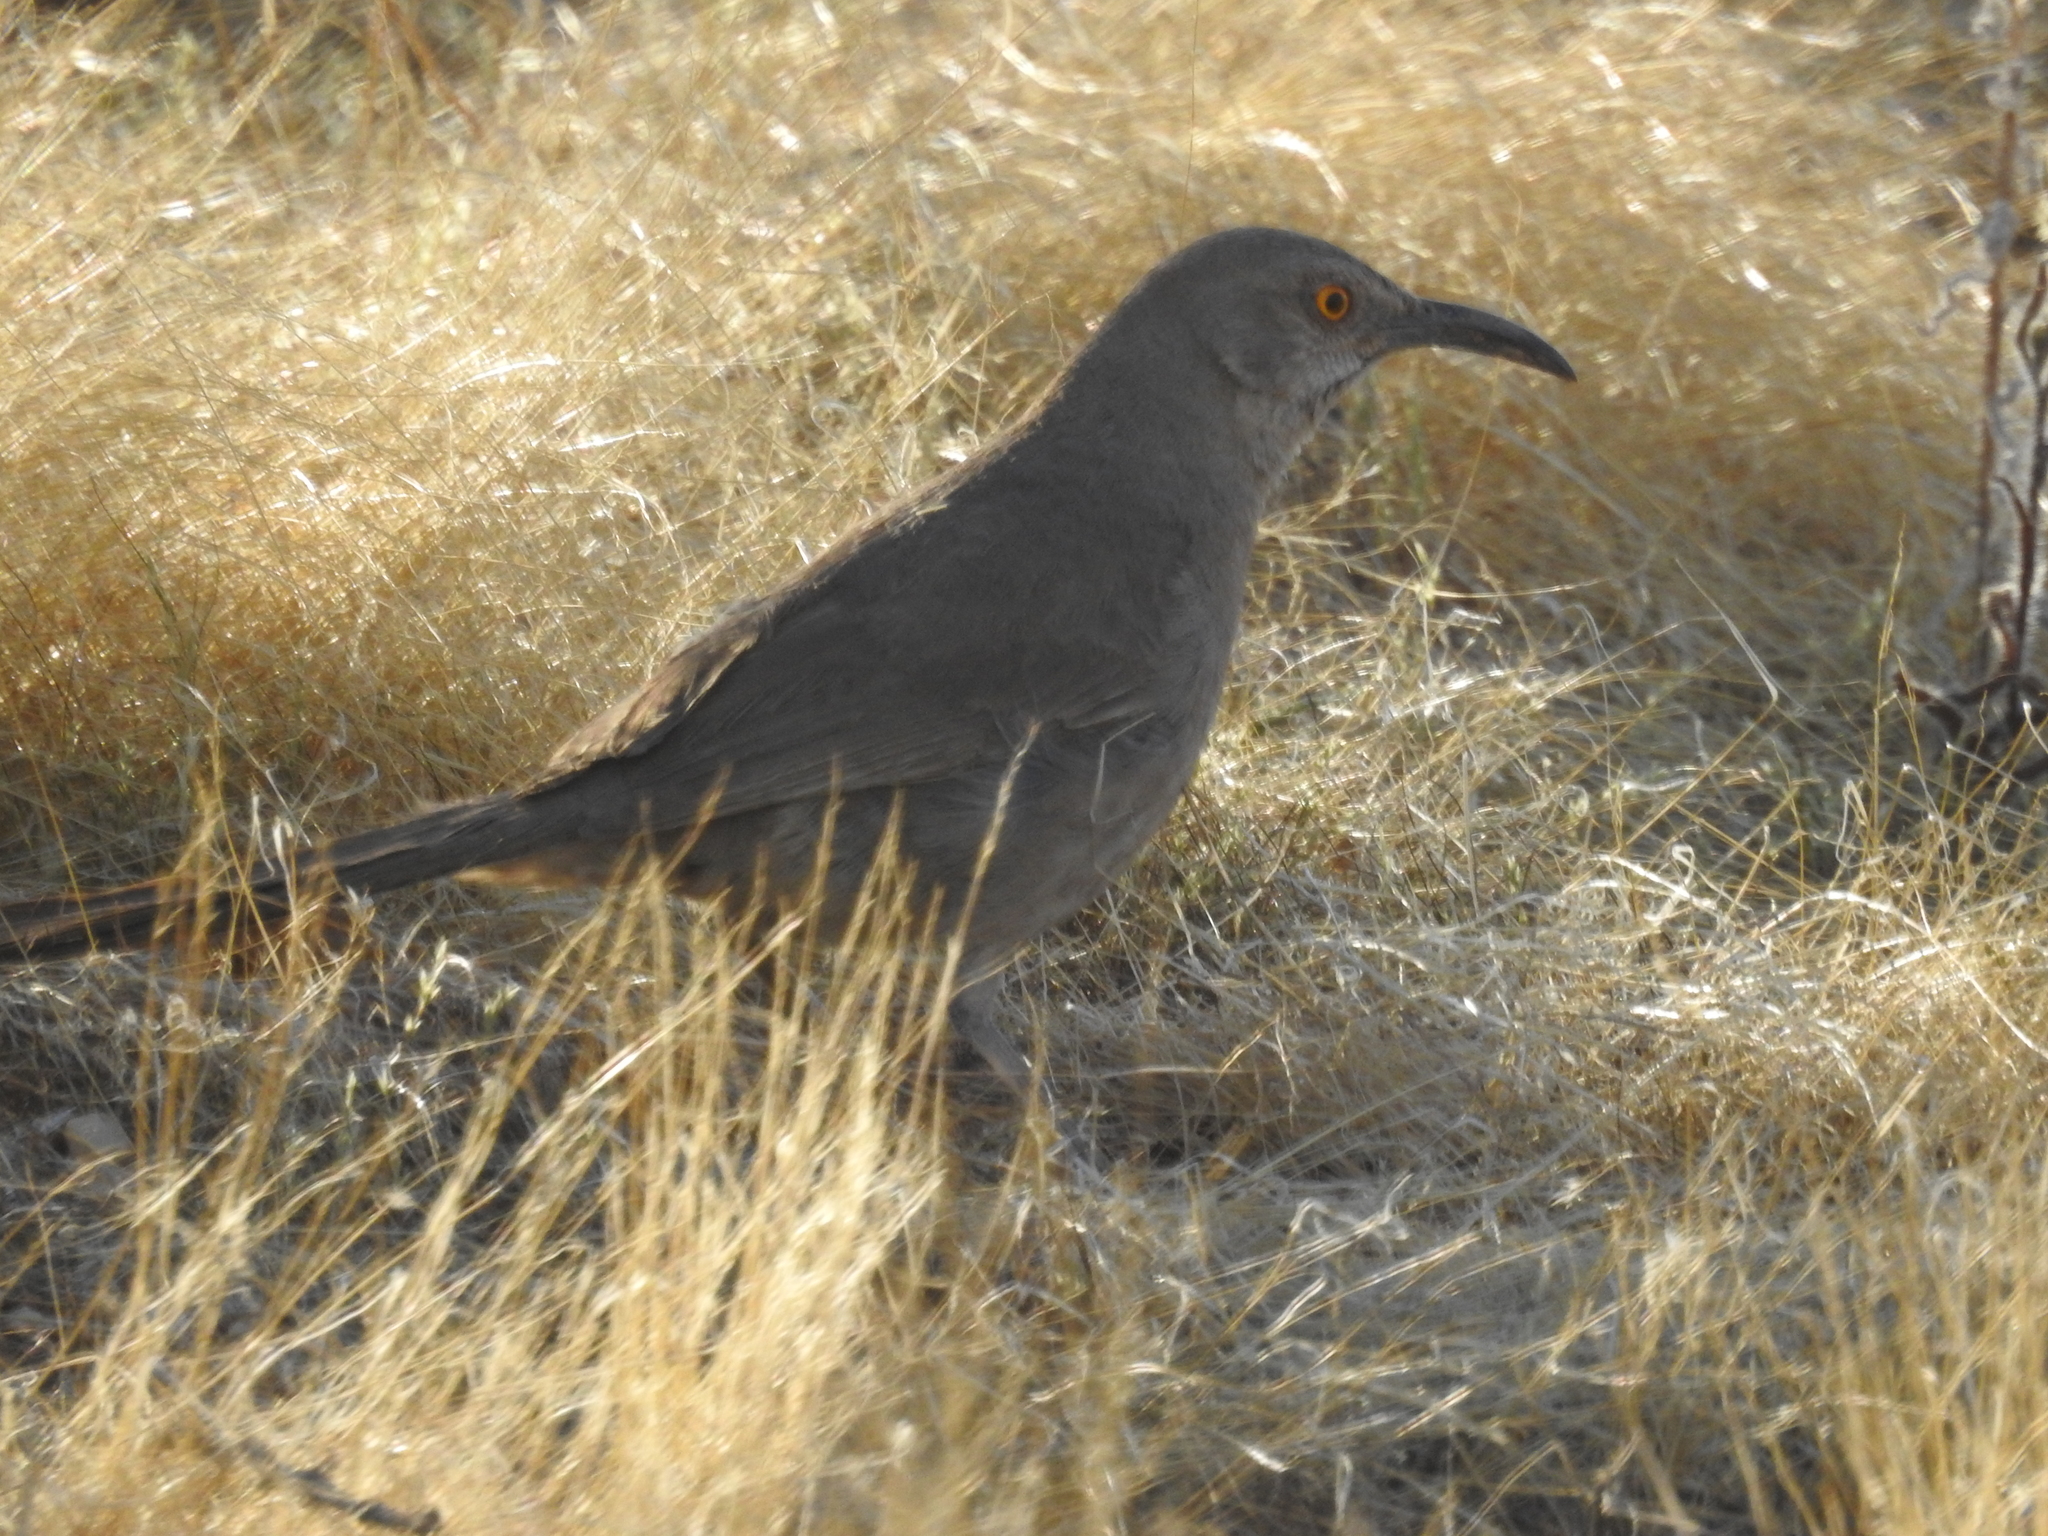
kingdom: Animalia
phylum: Chordata
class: Aves
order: Passeriformes
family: Mimidae
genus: Toxostoma
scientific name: Toxostoma curvirostre
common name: Curve-billed thrasher
